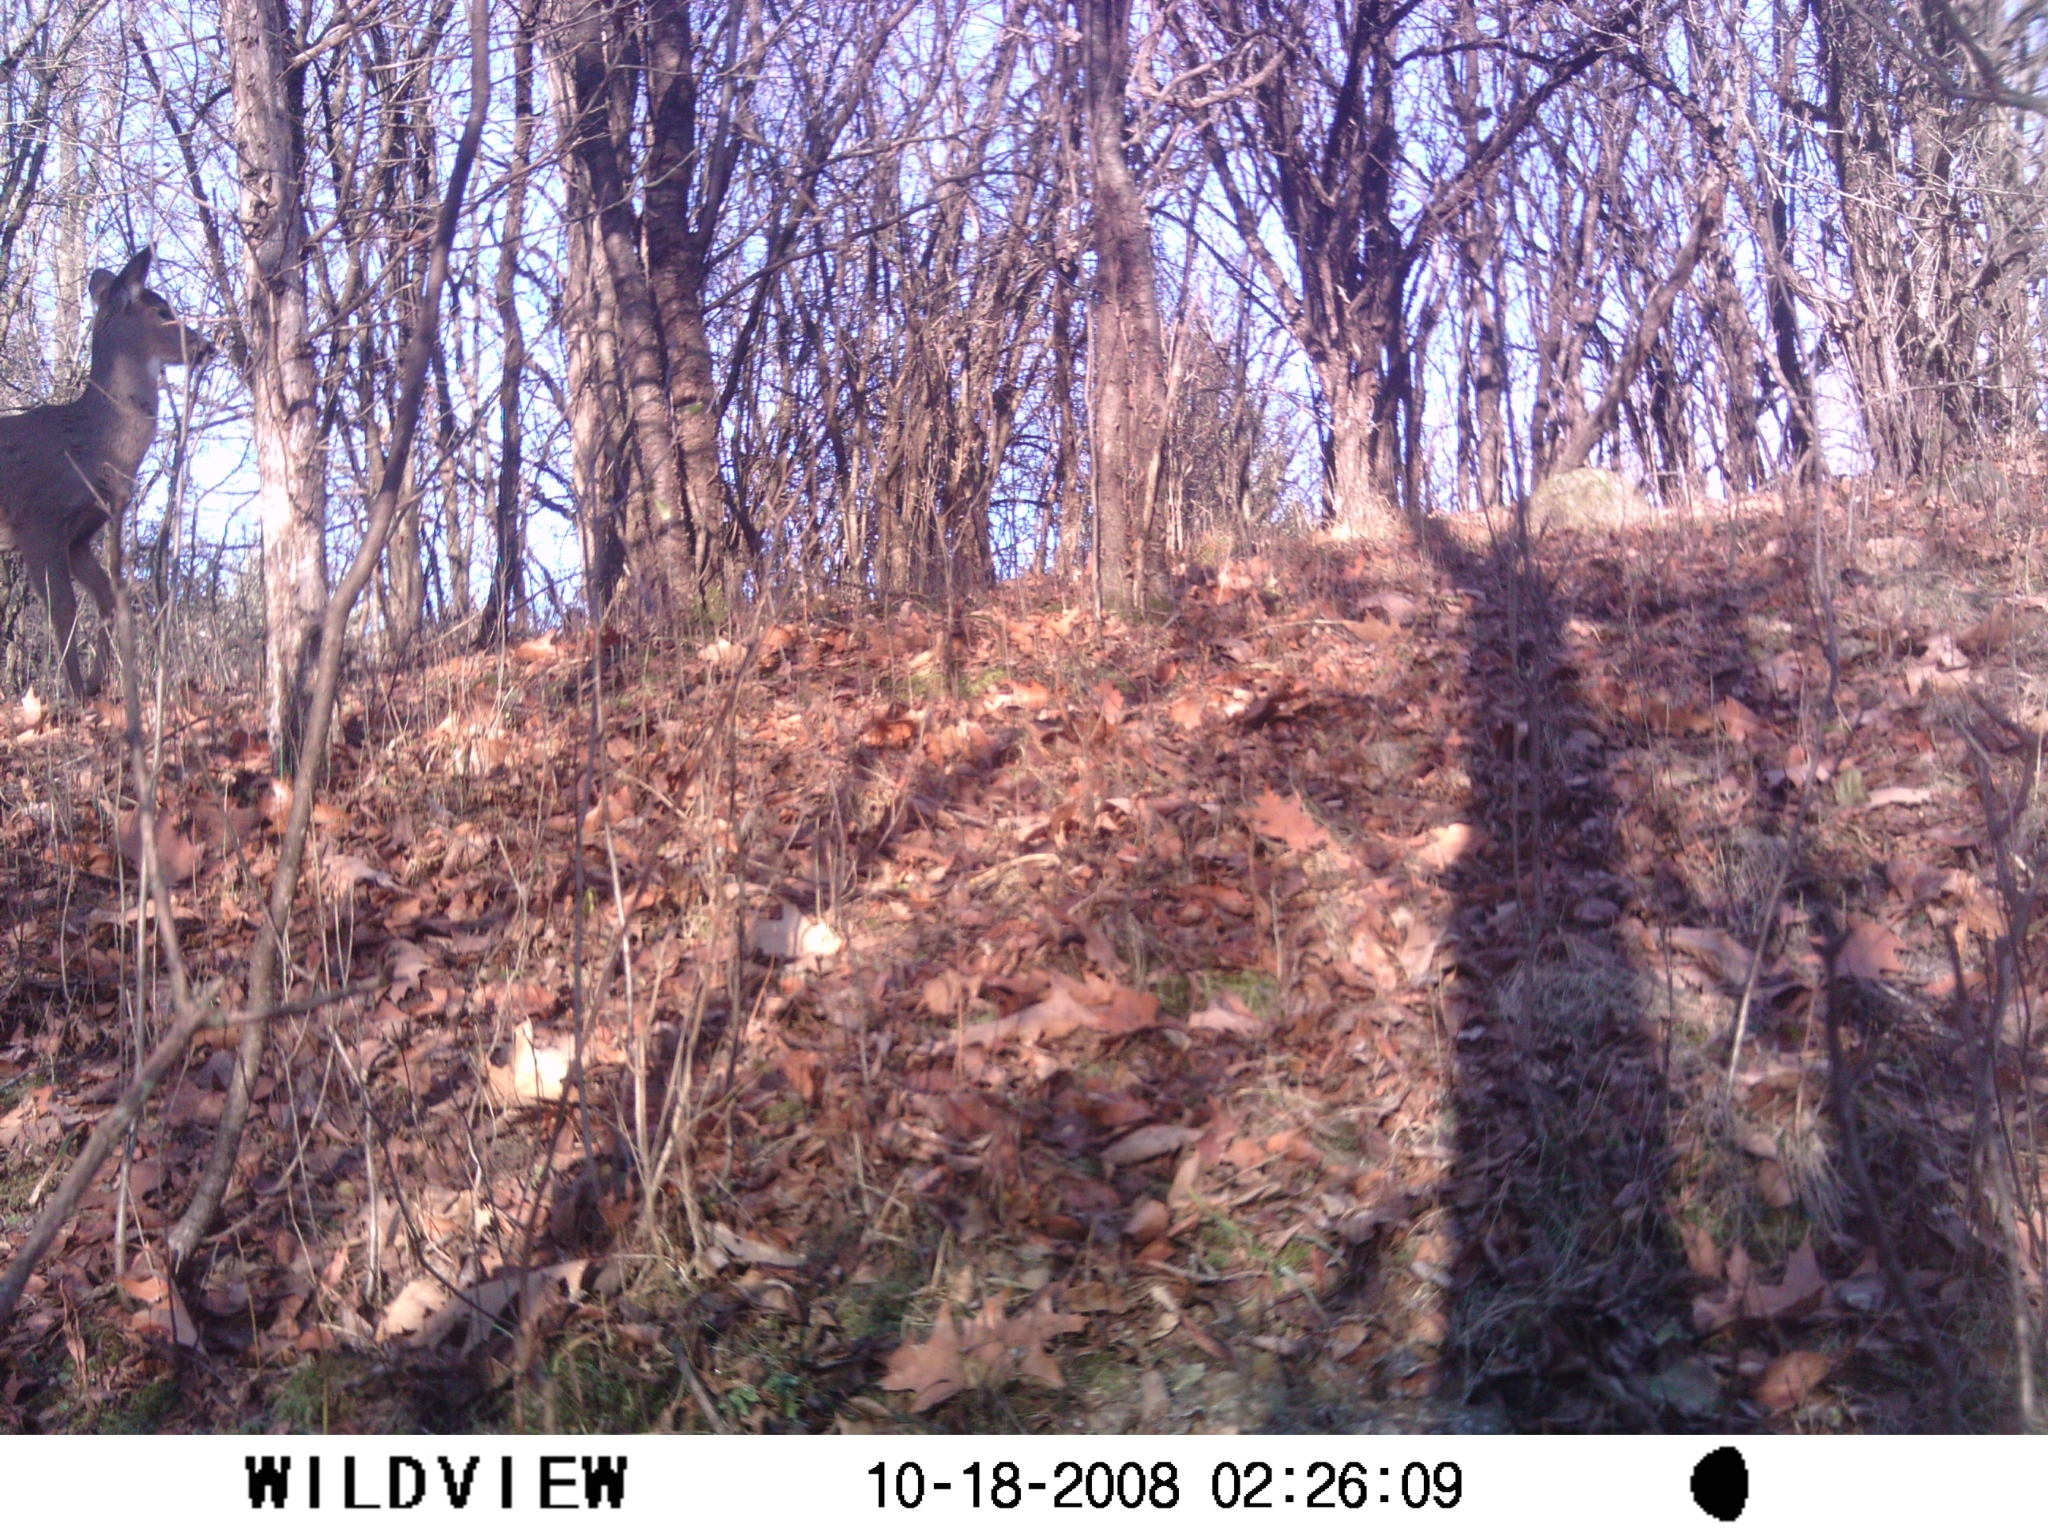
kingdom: Animalia
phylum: Chordata
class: Mammalia
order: Artiodactyla
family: Cervidae
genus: Odocoileus
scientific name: Odocoileus virginianus
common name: White-tailed deer
